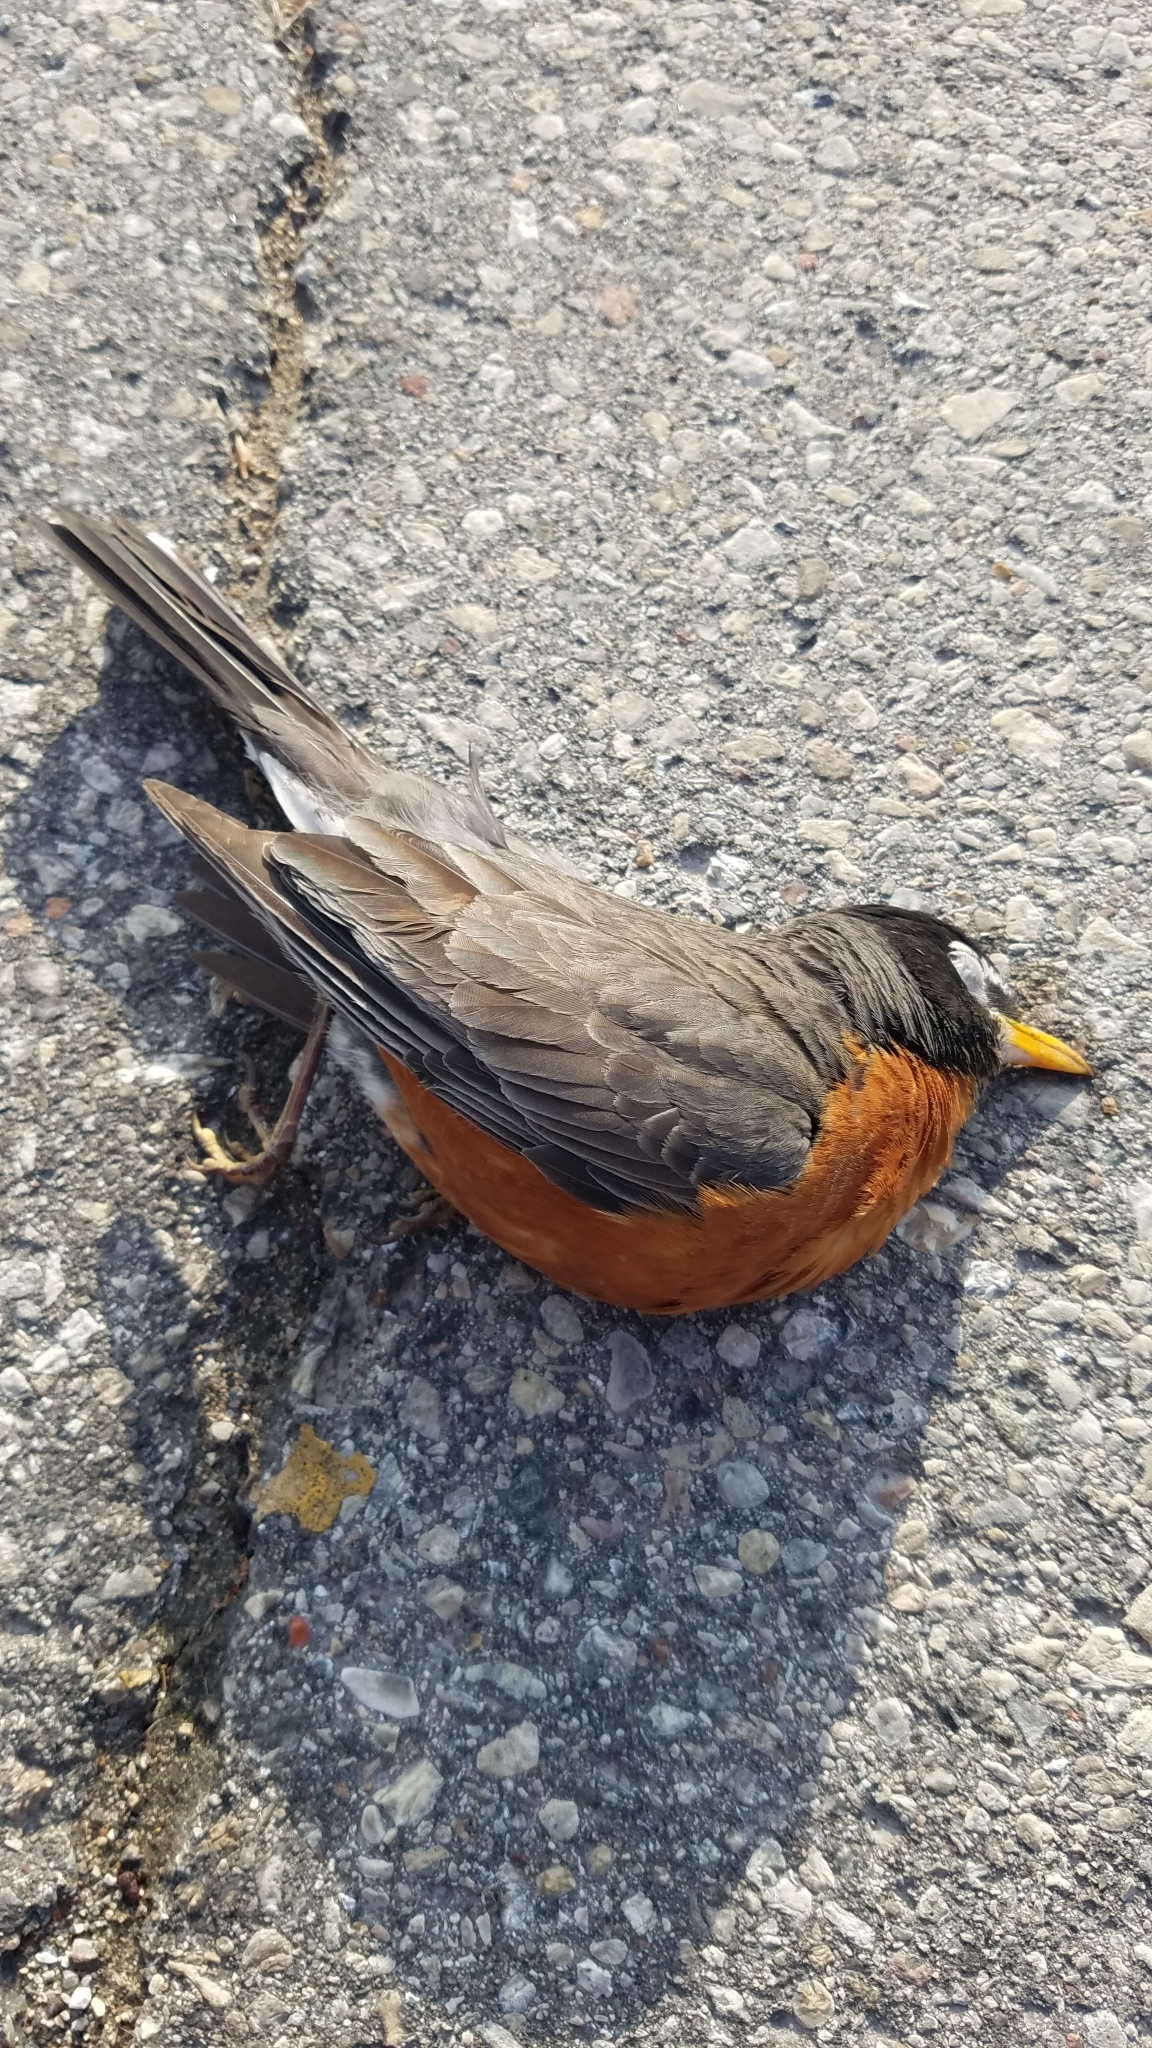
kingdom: Animalia
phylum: Chordata
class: Aves
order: Passeriformes
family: Turdidae
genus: Turdus
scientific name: Turdus migratorius
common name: American robin
